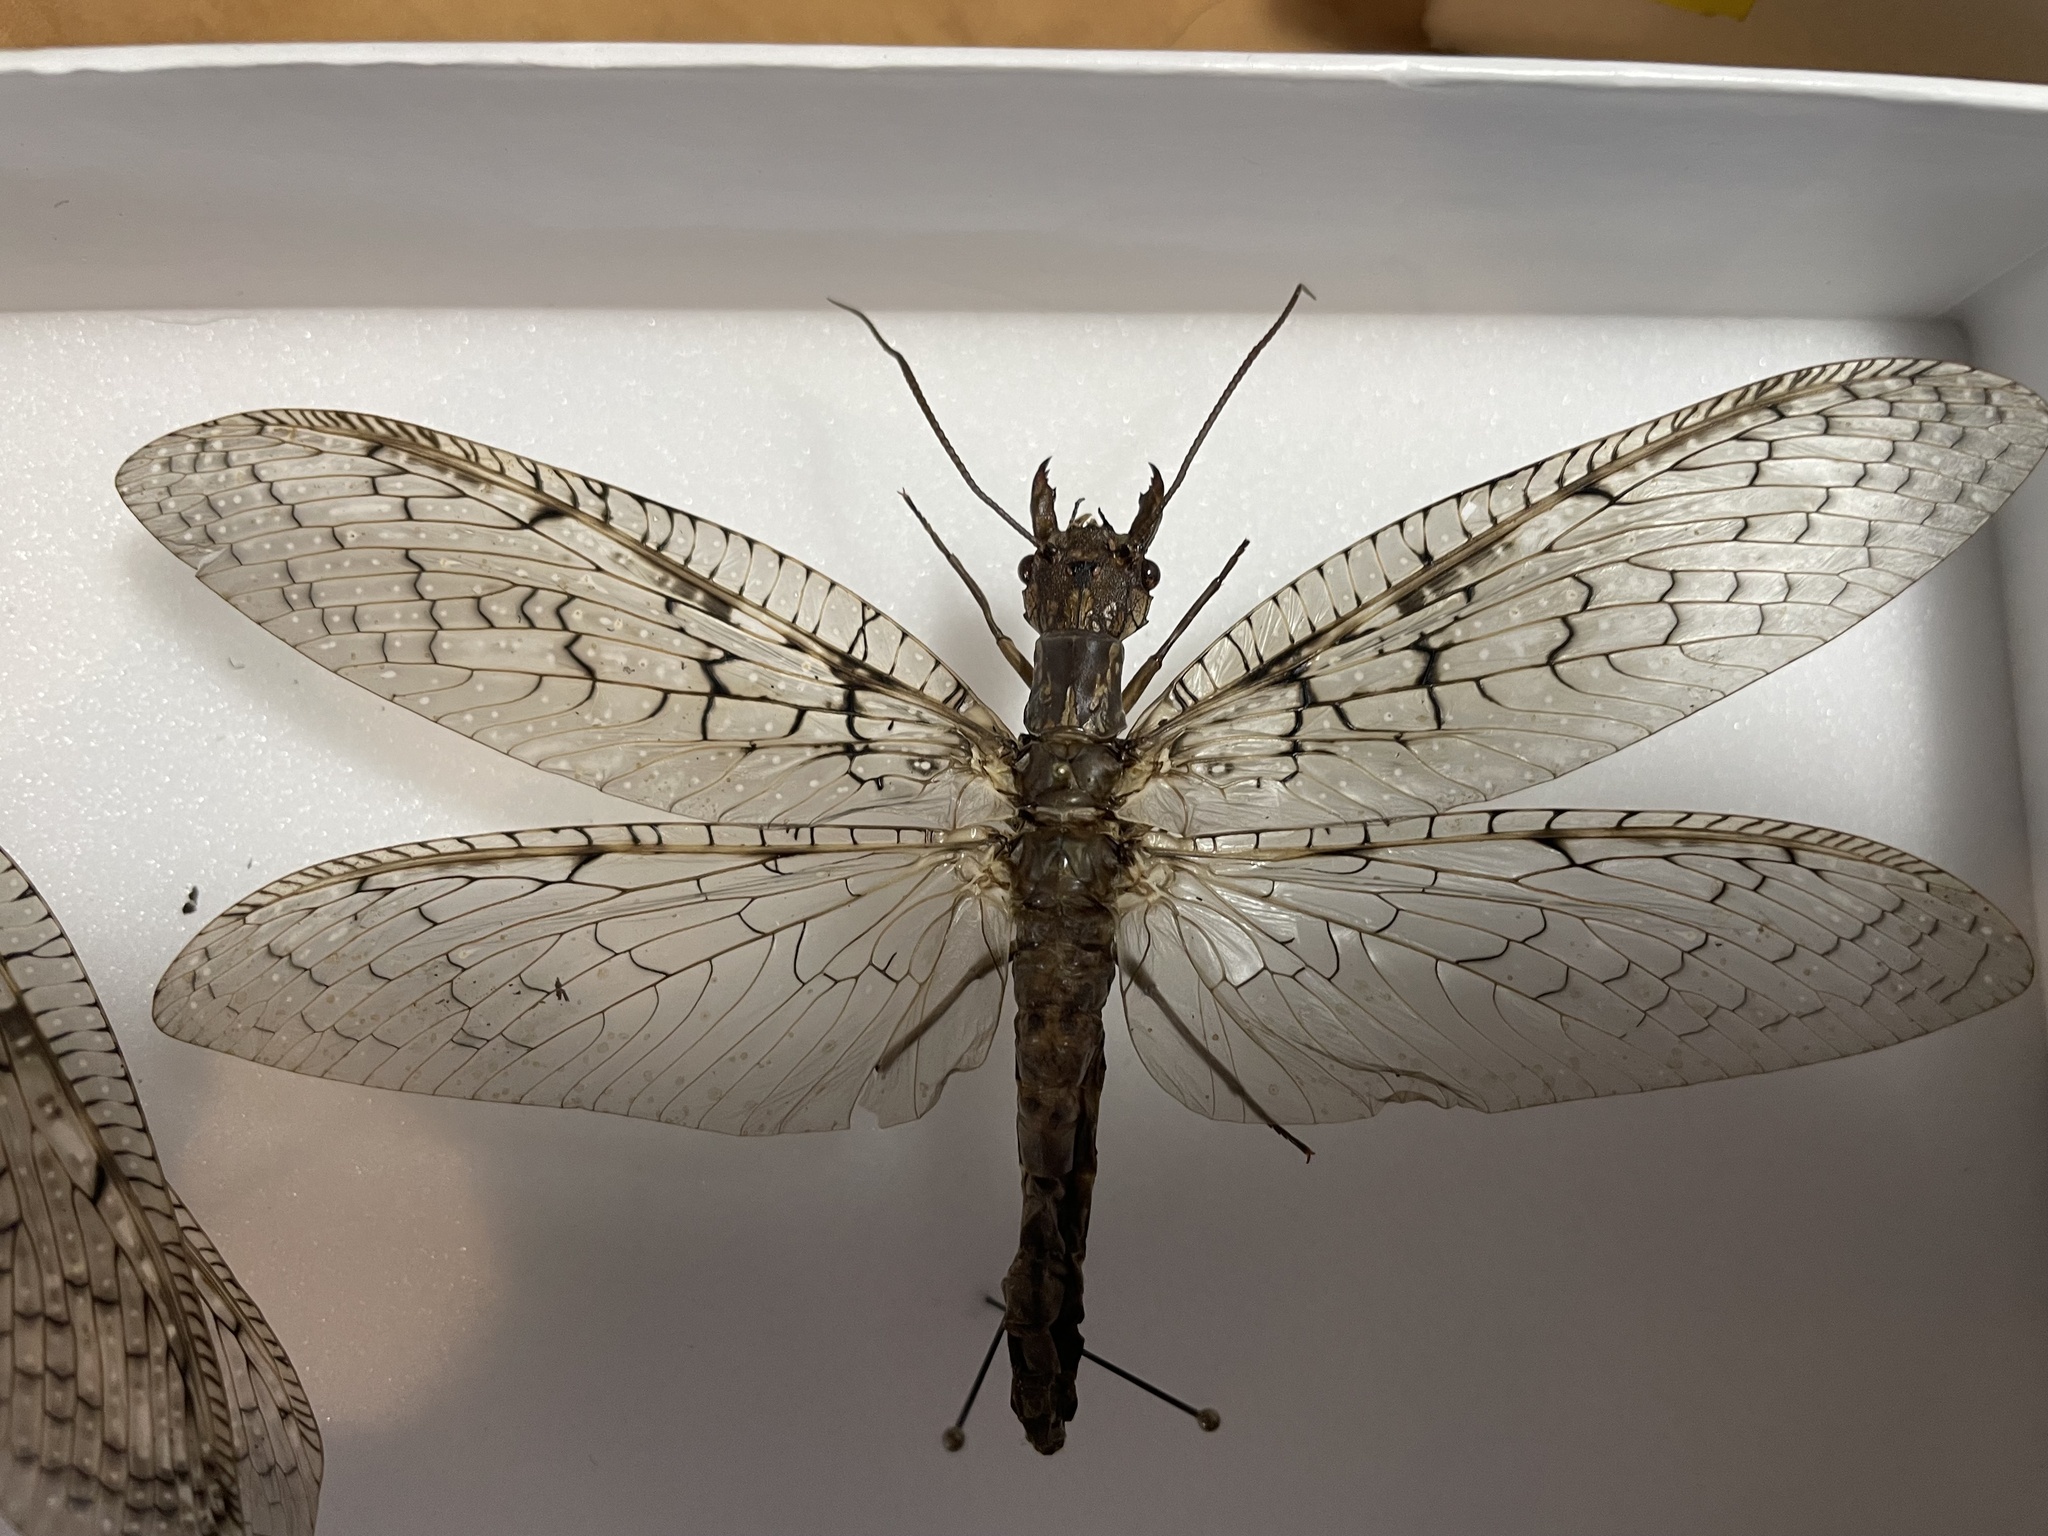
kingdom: Animalia
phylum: Arthropoda
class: Insecta
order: Megaloptera
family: Corydalidae
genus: Corydalus
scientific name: Corydalus cornutus
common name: Dobsonfly
